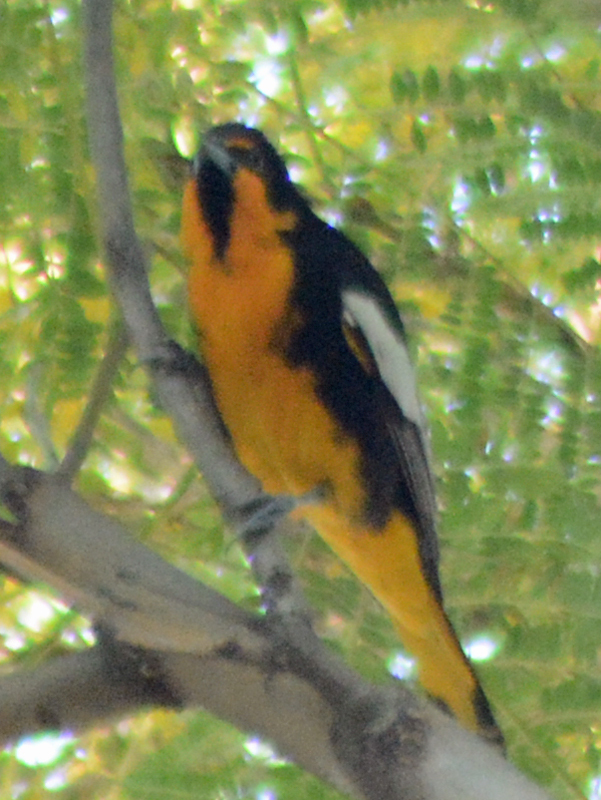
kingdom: Animalia
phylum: Chordata
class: Aves
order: Passeriformes
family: Icteridae
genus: Icterus
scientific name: Icterus abeillei
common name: Black-backed oriole
